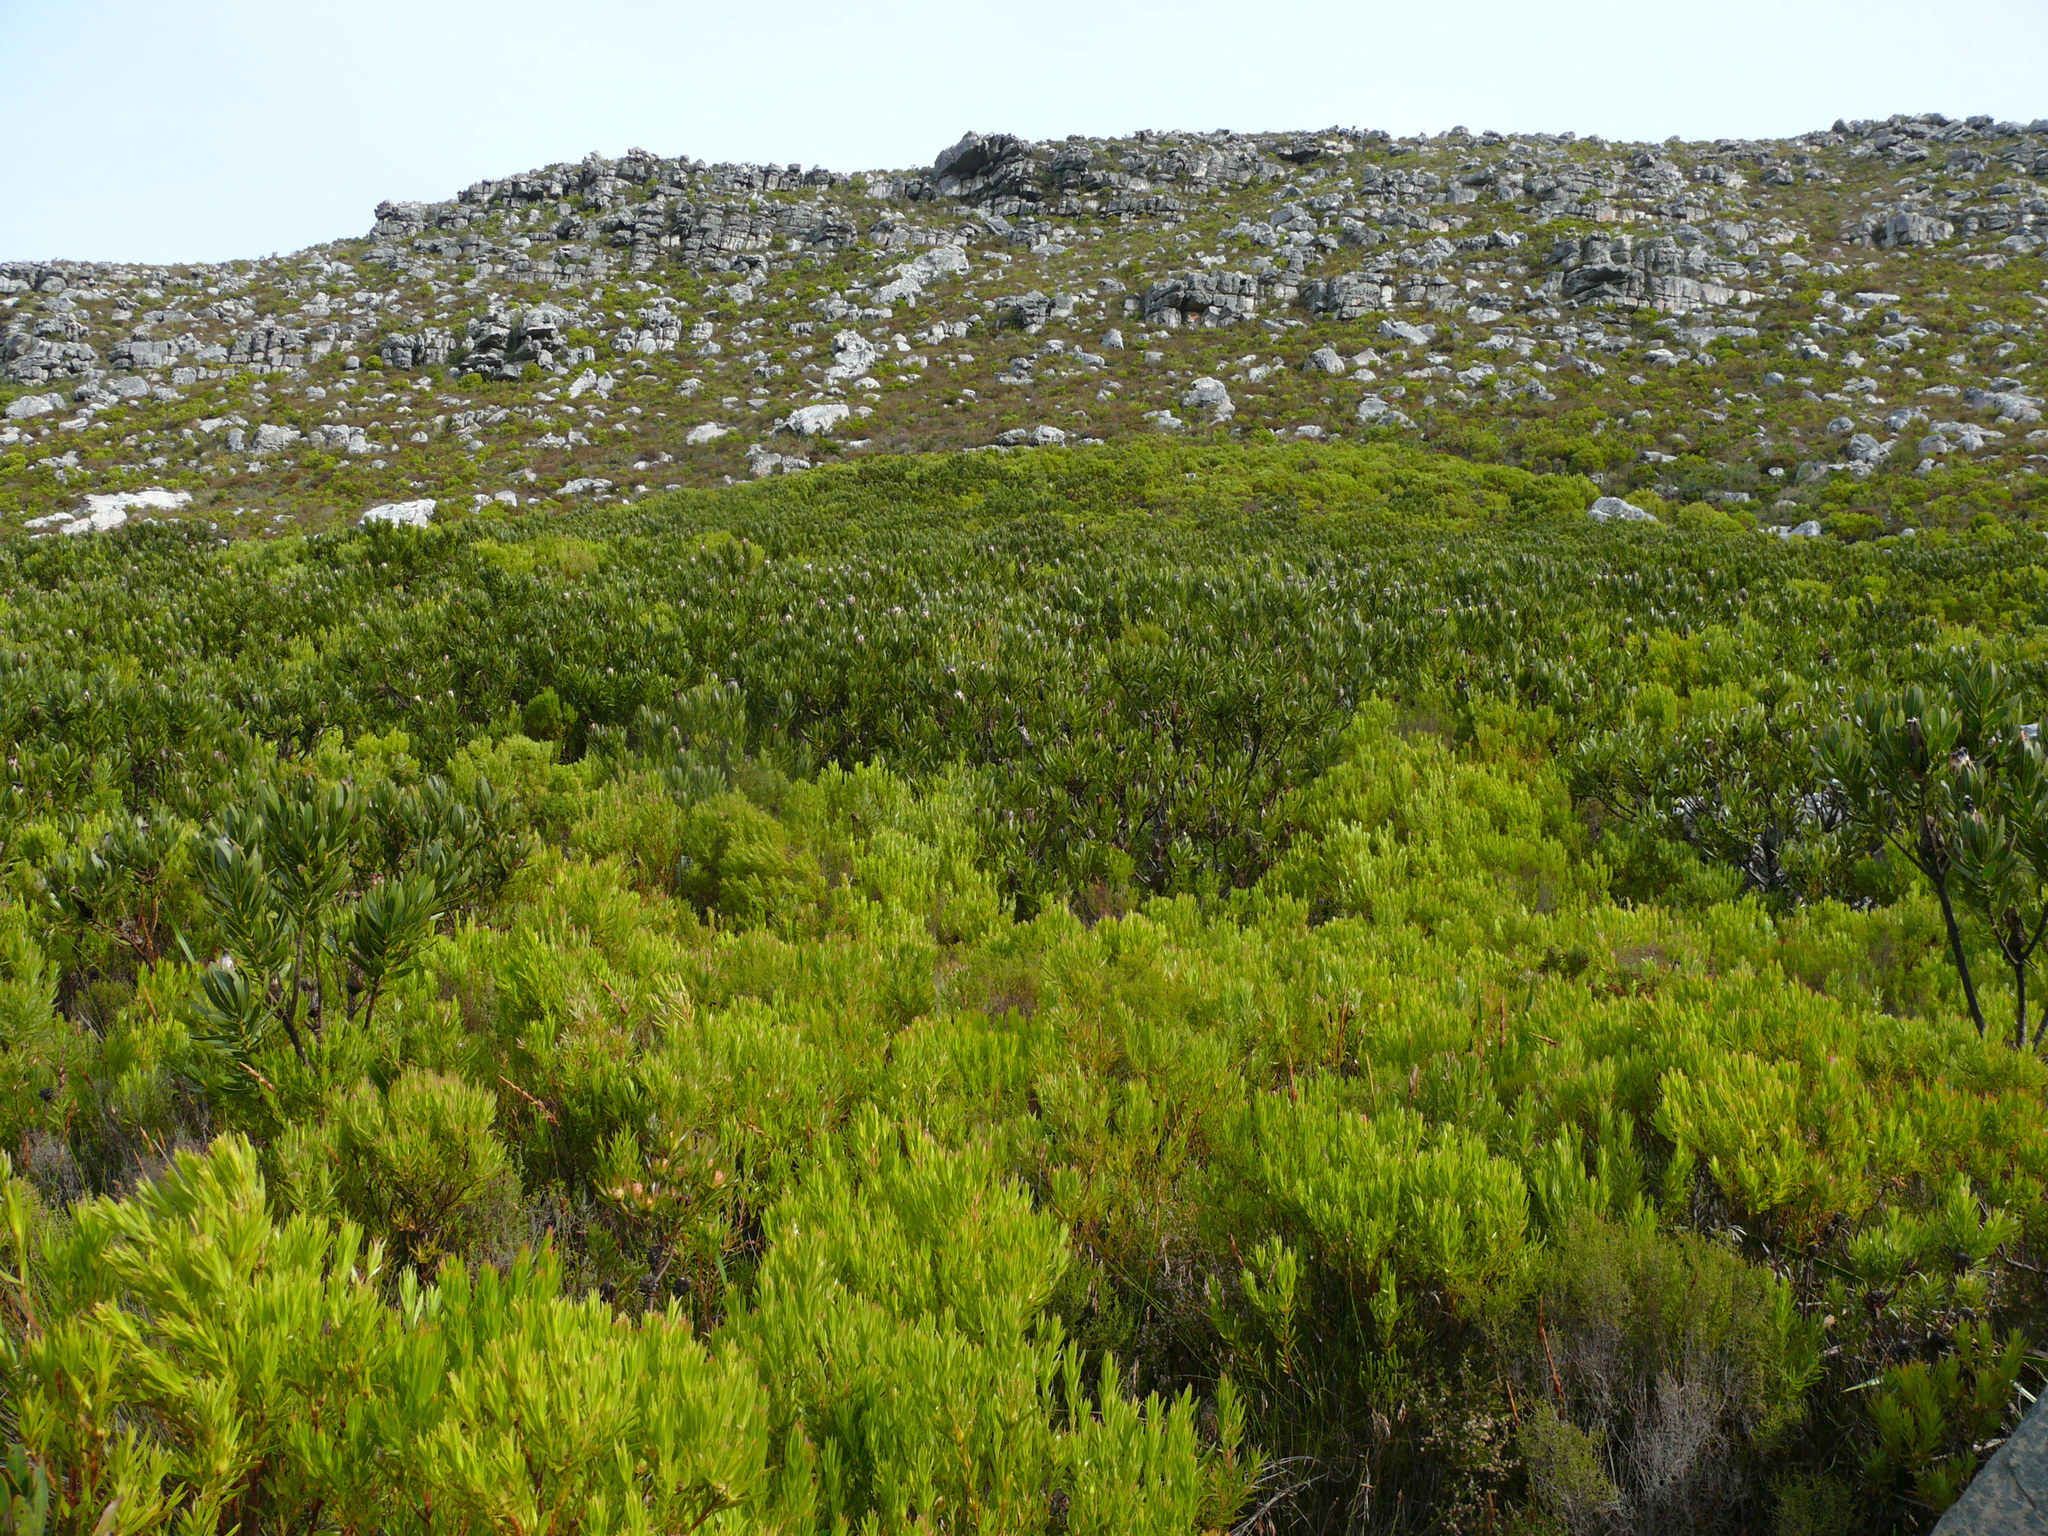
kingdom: Plantae
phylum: Tracheophyta
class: Magnoliopsida
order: Proteales
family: Proteaceae
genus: Protea
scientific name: Protea lepidocarpodendron
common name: Black-bearded protea
